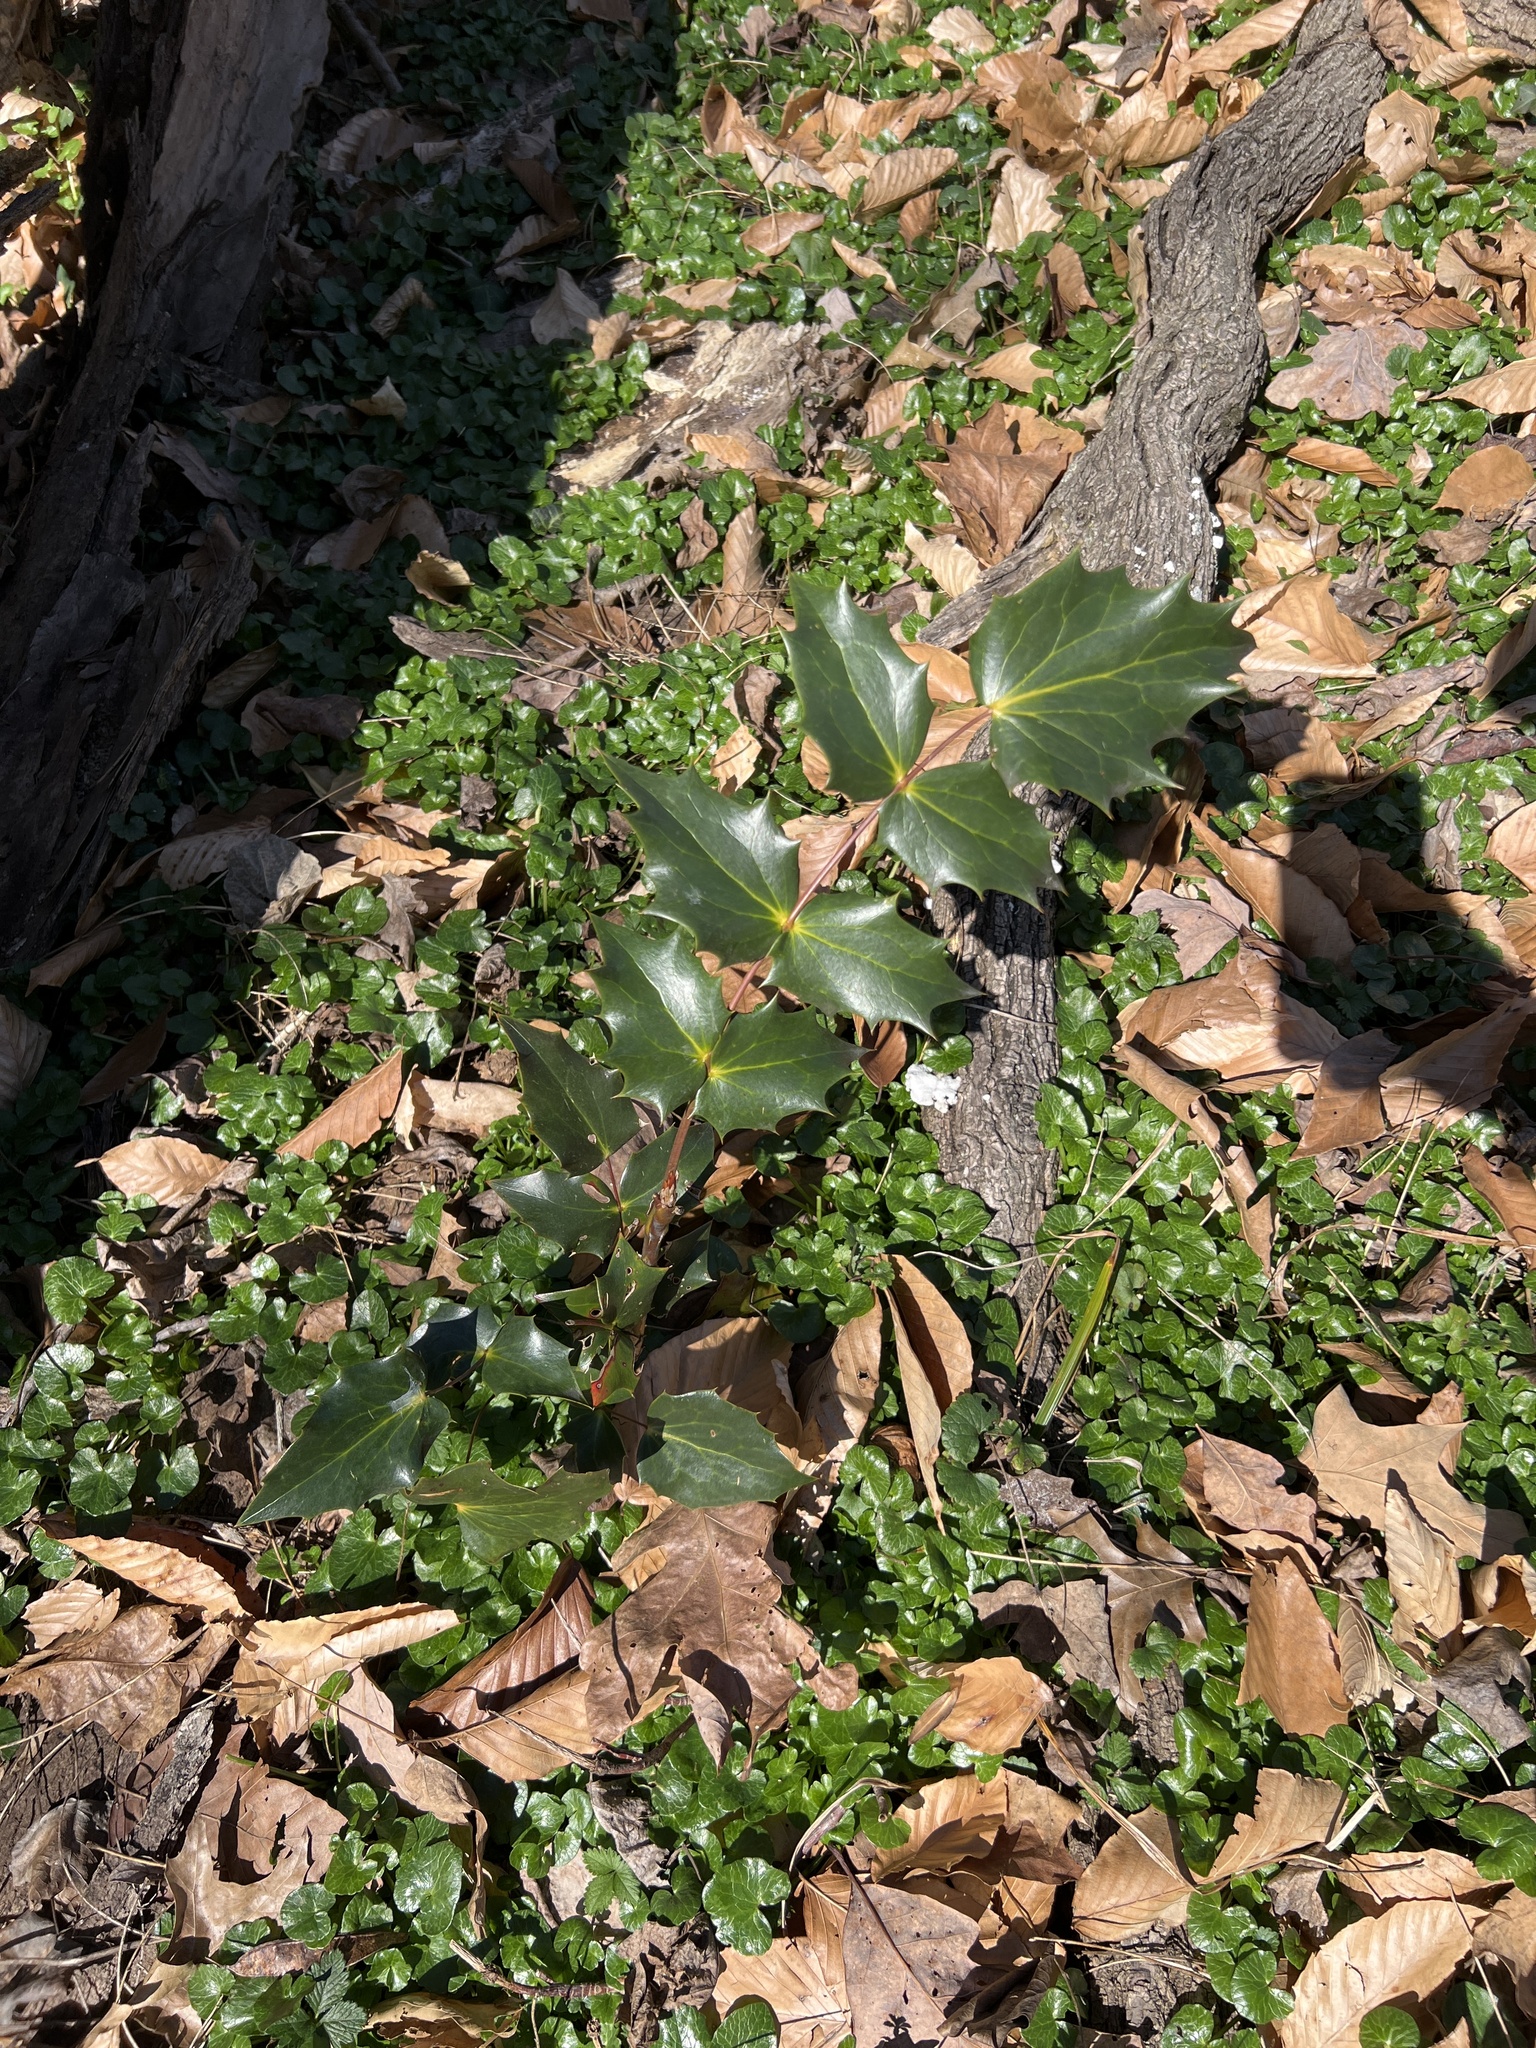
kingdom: Plantae
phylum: Tracheophyta
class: Magnoliopsida
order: Ranunculales
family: Berberidaceae
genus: Mahonia
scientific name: Mahonia bealei
